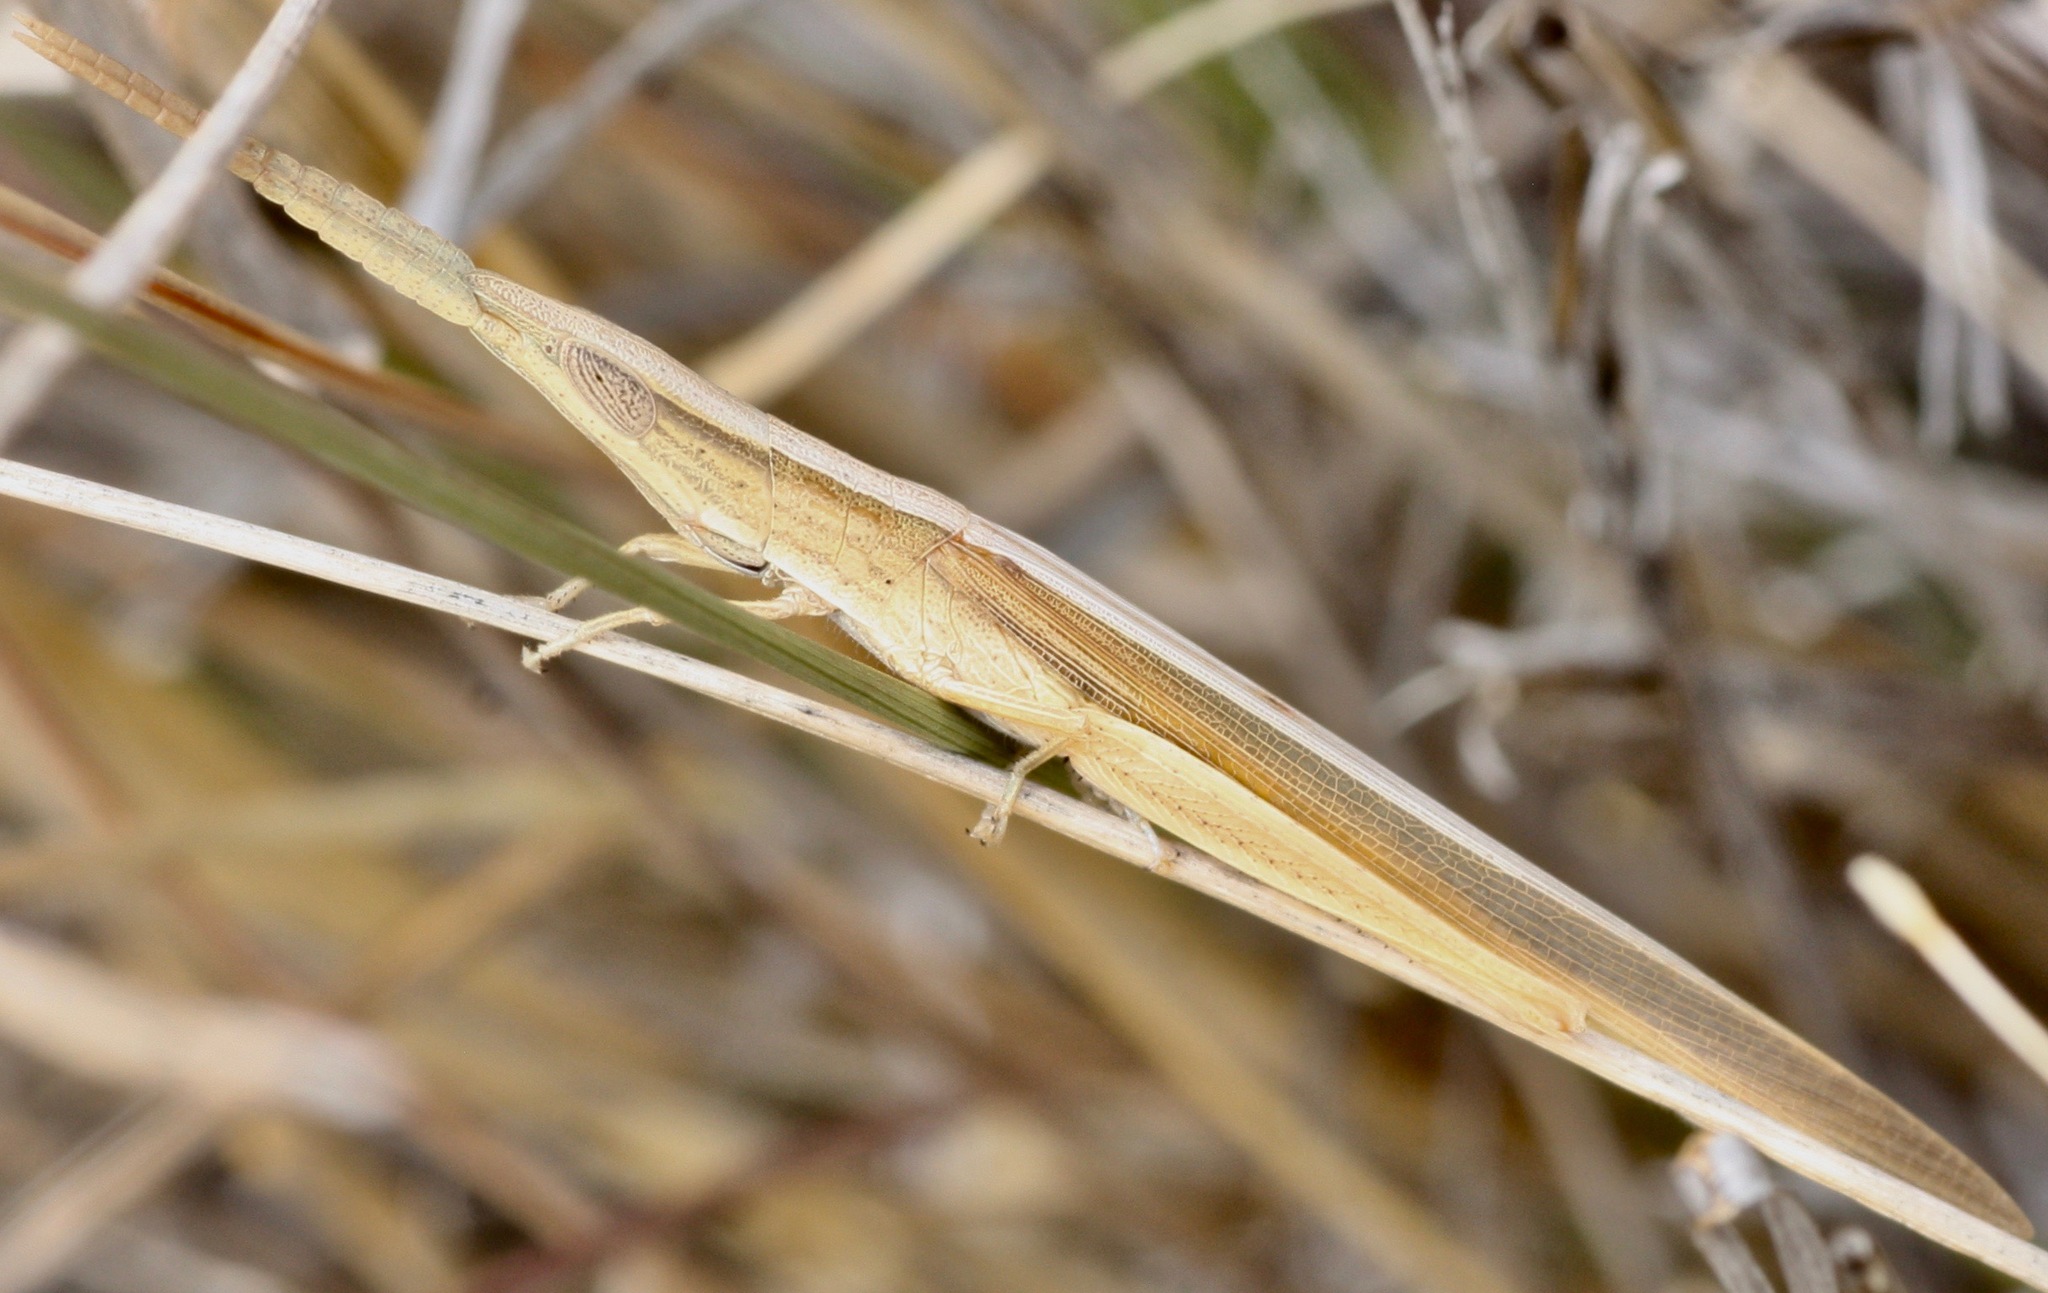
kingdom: Animalia
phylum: Arthropoda
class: Insecta
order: Orthoptera
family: Acrididae
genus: Achurum
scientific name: Achurum sumichrasti
